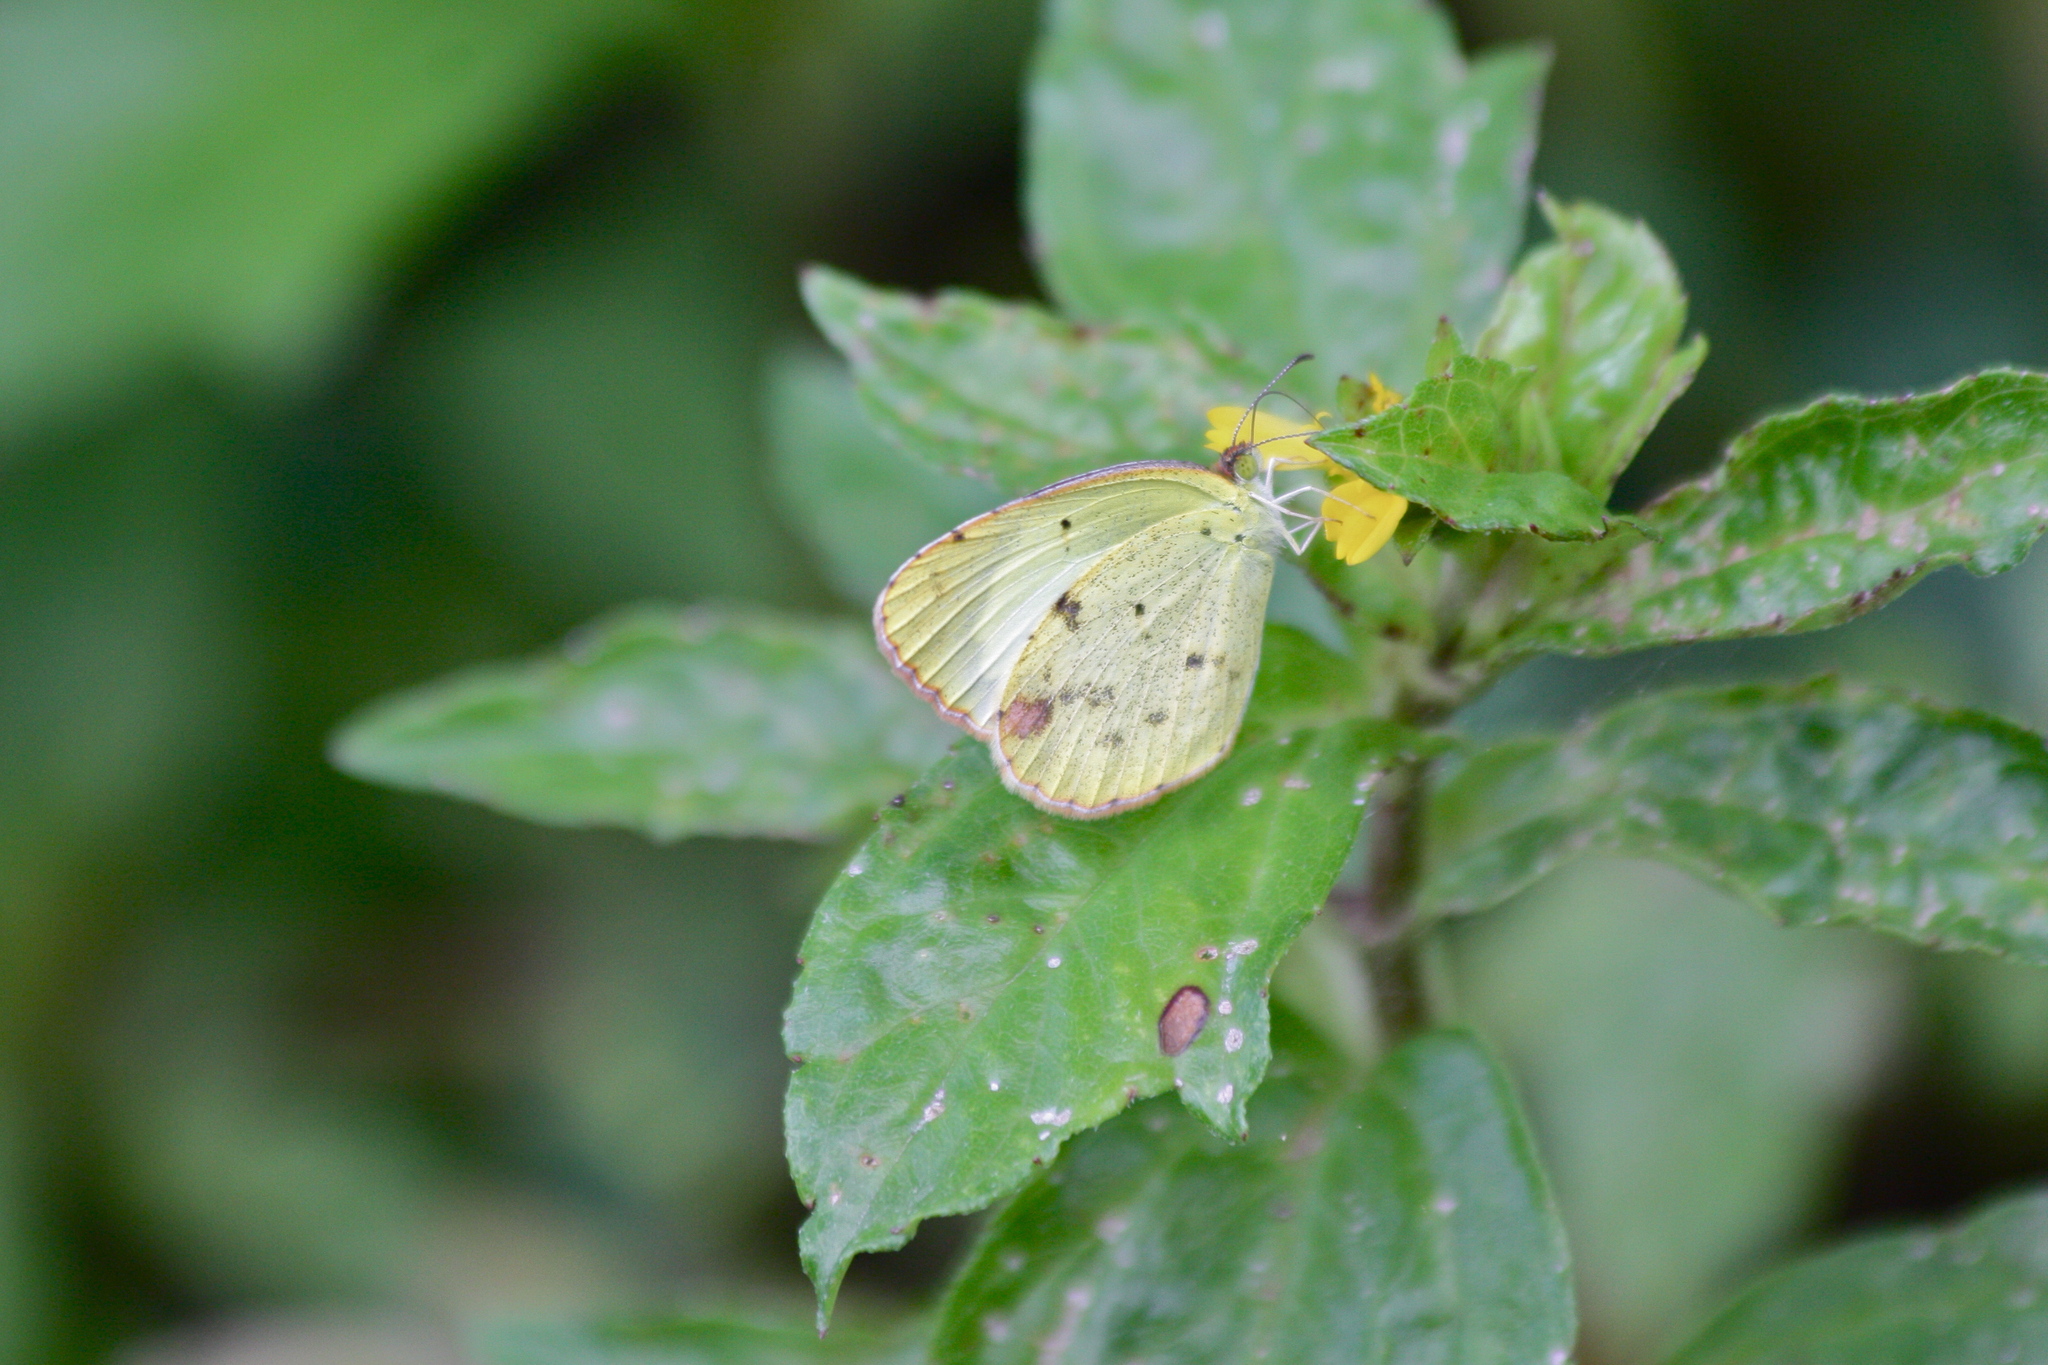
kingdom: Animalia
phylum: Arthropoda
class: Insecta
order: Lepidoptera
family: Pieridae
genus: Pyrisitia
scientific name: Pyrisitia lisa
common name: Little yellow
